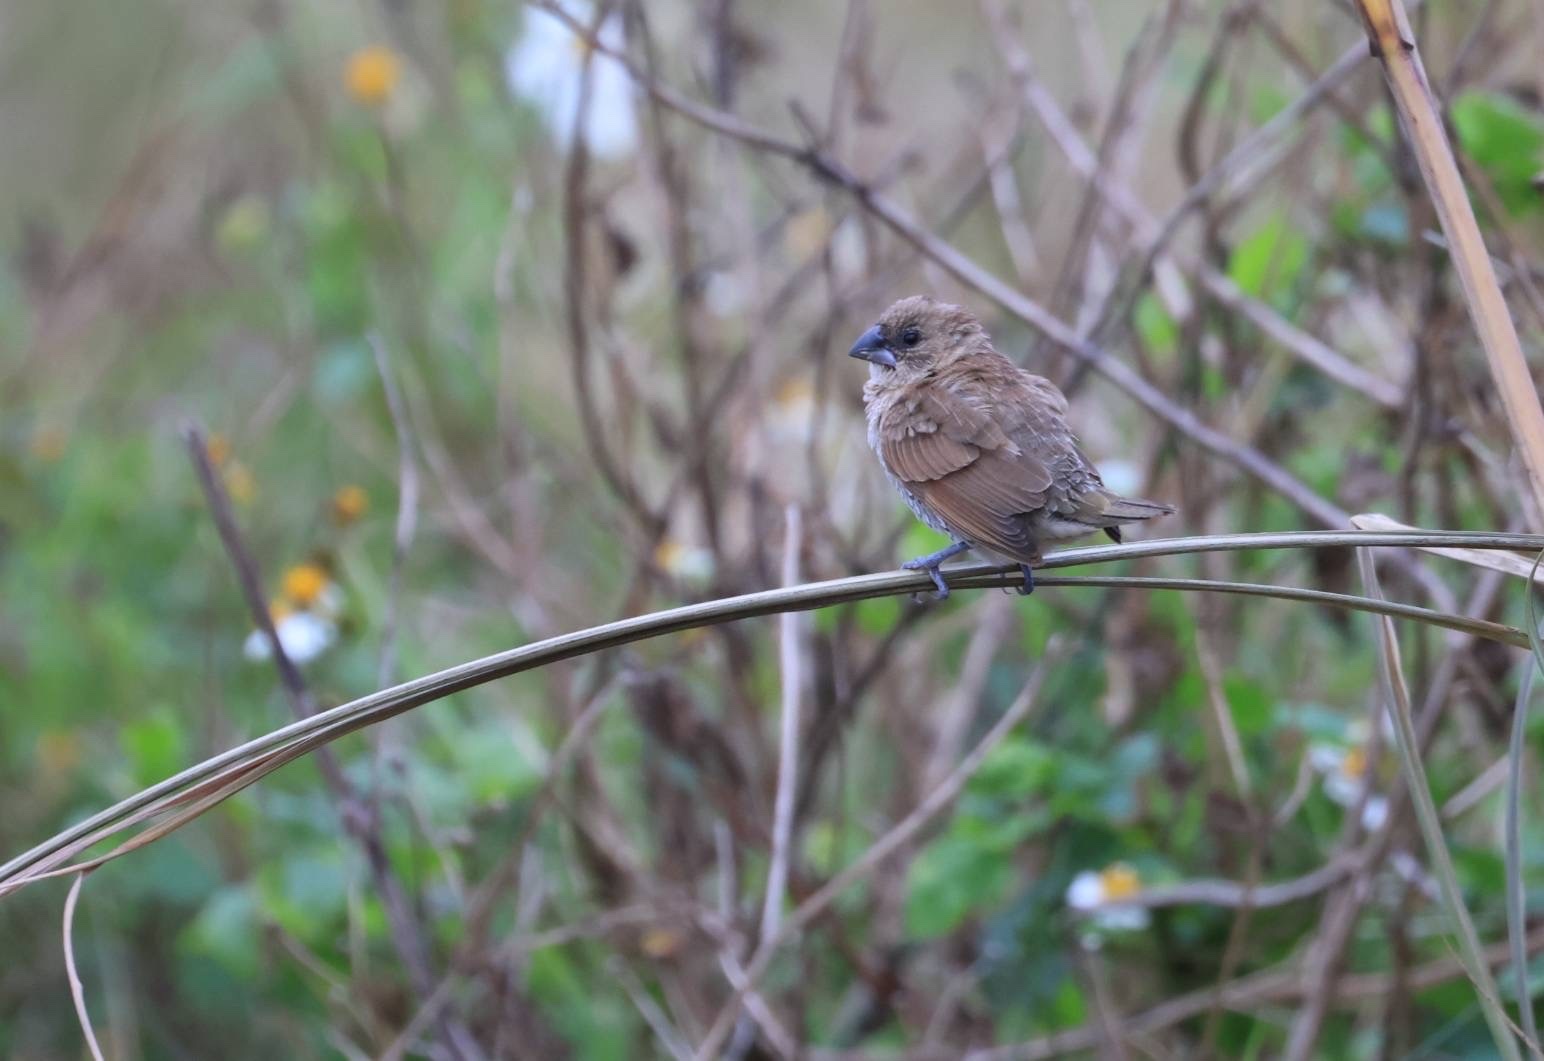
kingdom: Animalia
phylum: Chordata
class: Aves
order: Passeriformes
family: Estrildidae
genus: Lonchura
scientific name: Lonchura punctulata
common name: Scaly-breasted munia
